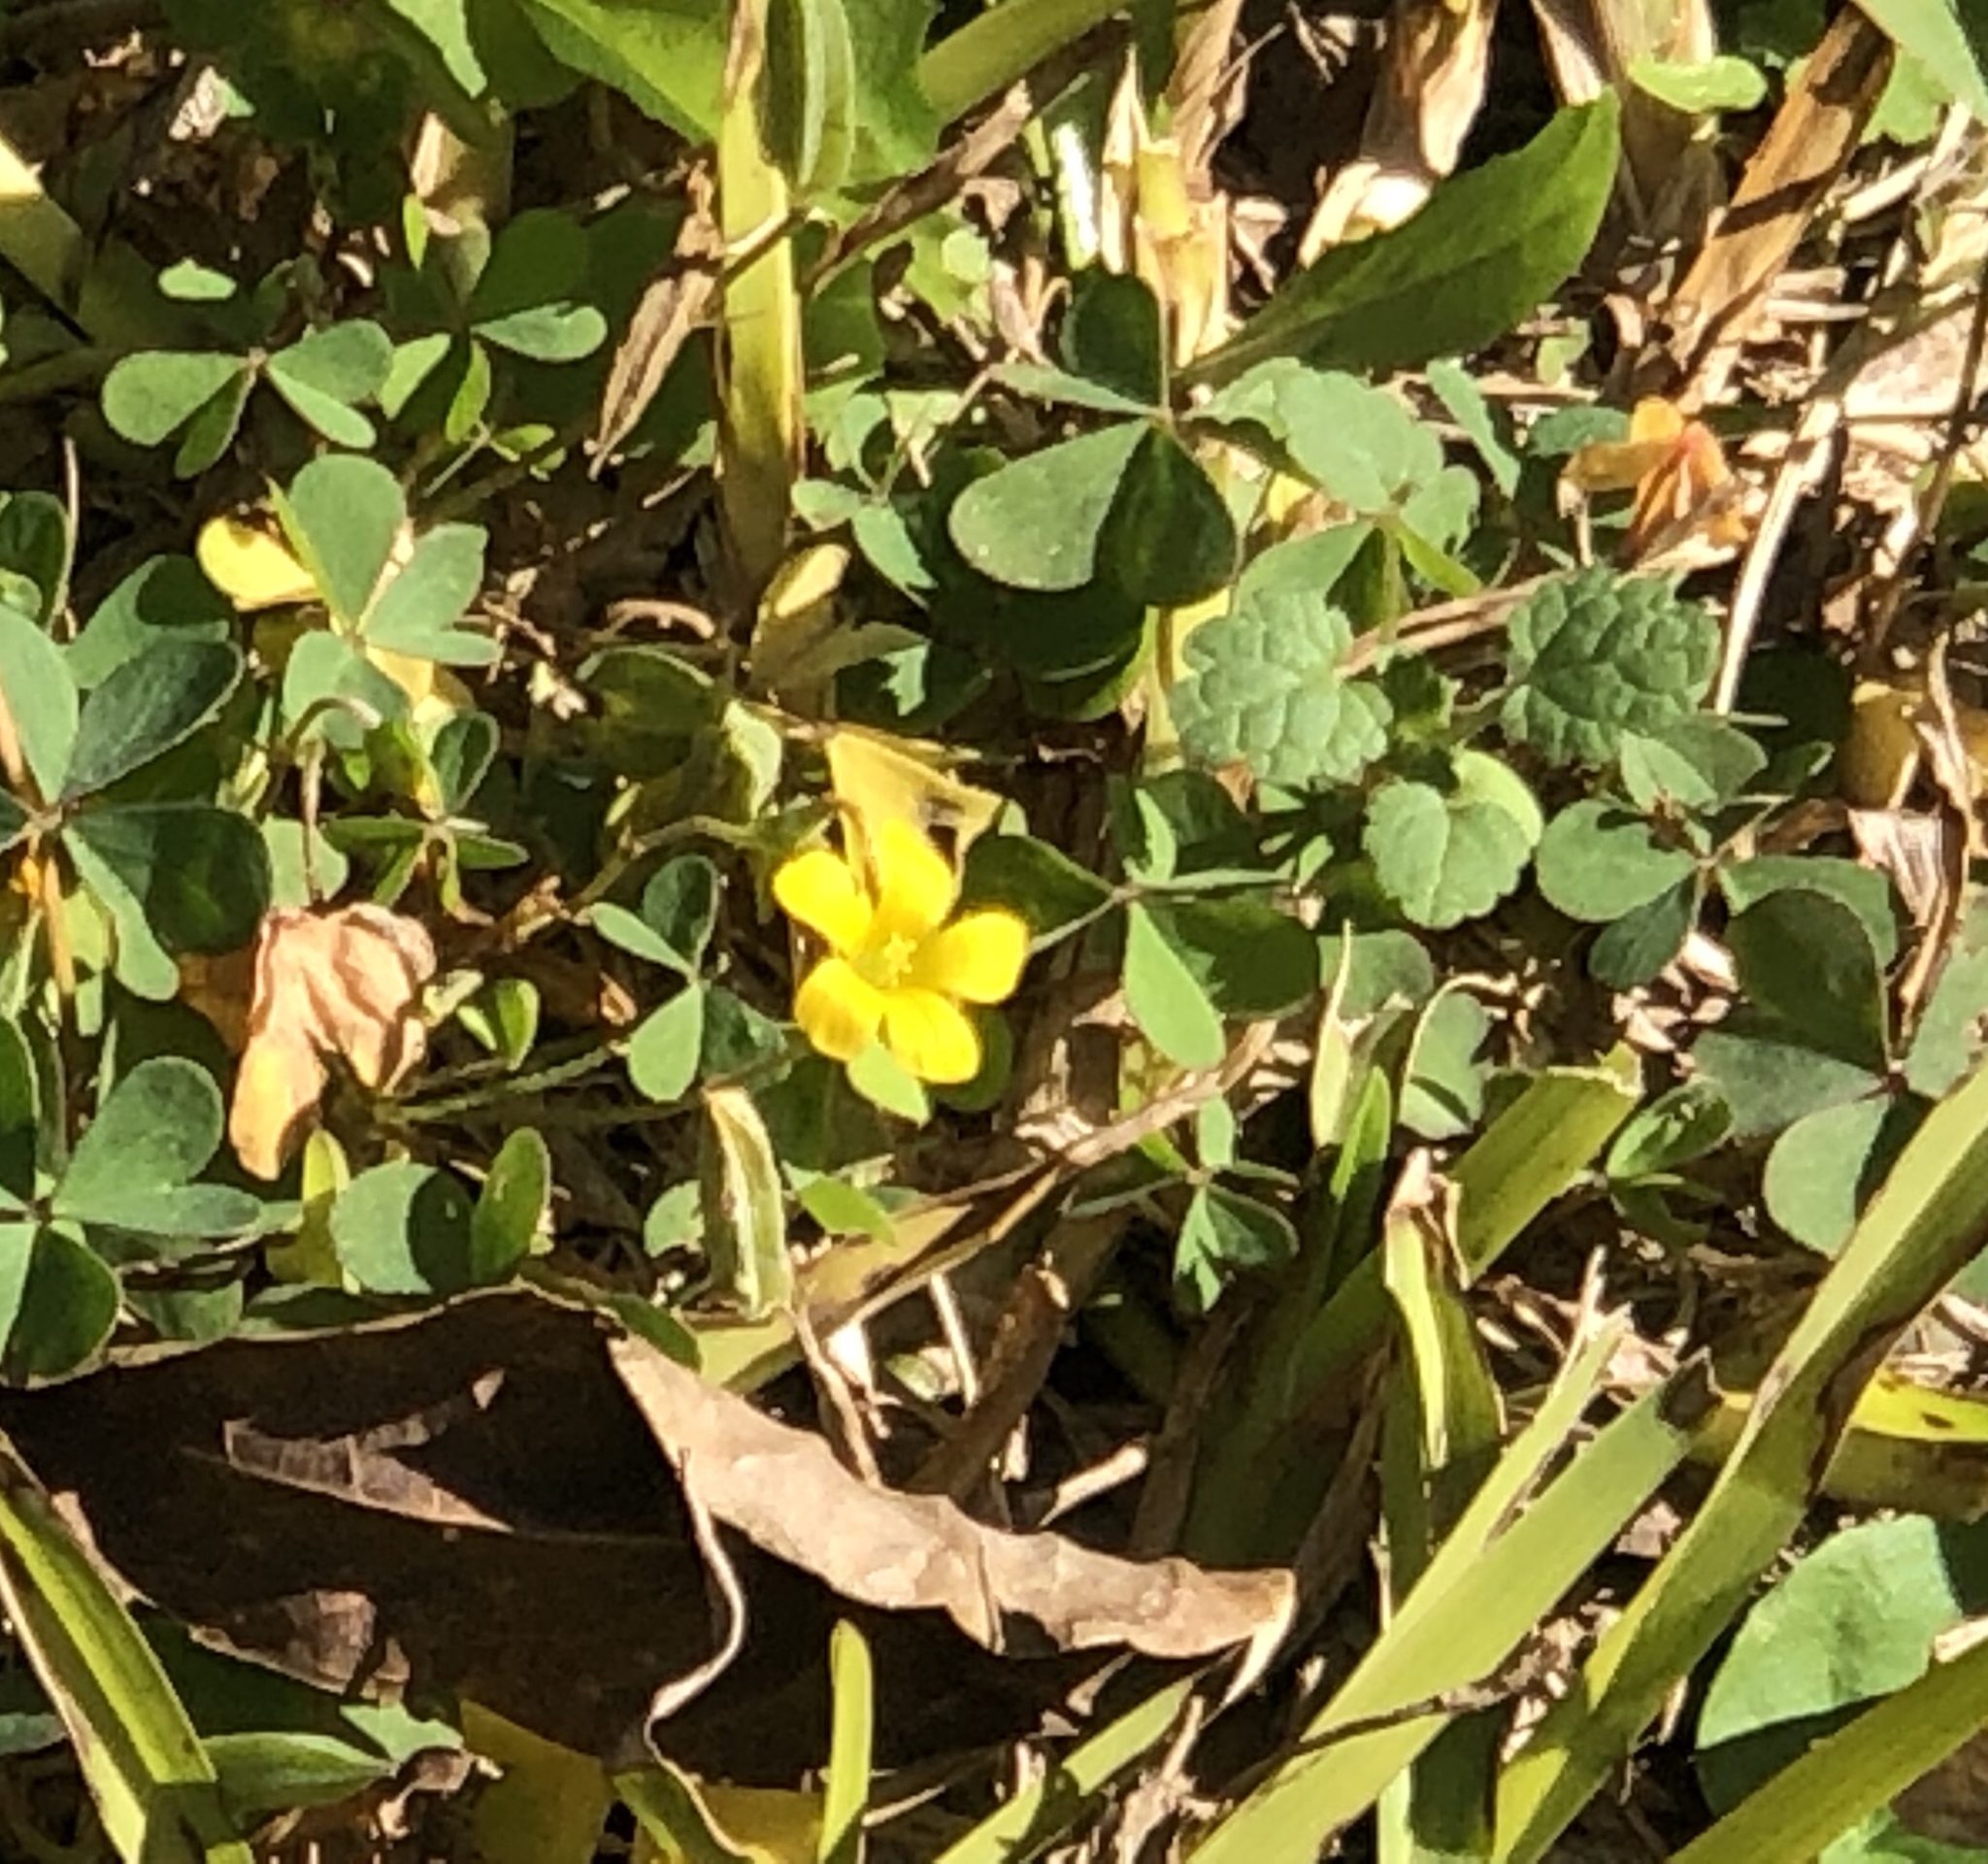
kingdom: Plantae
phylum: Tracheophyta
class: Magnoliopsida
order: Oxalidales
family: Oxalidaceae
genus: Oxalis
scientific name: Oxalis corniculata
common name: Procumbent yellow-sorrel
